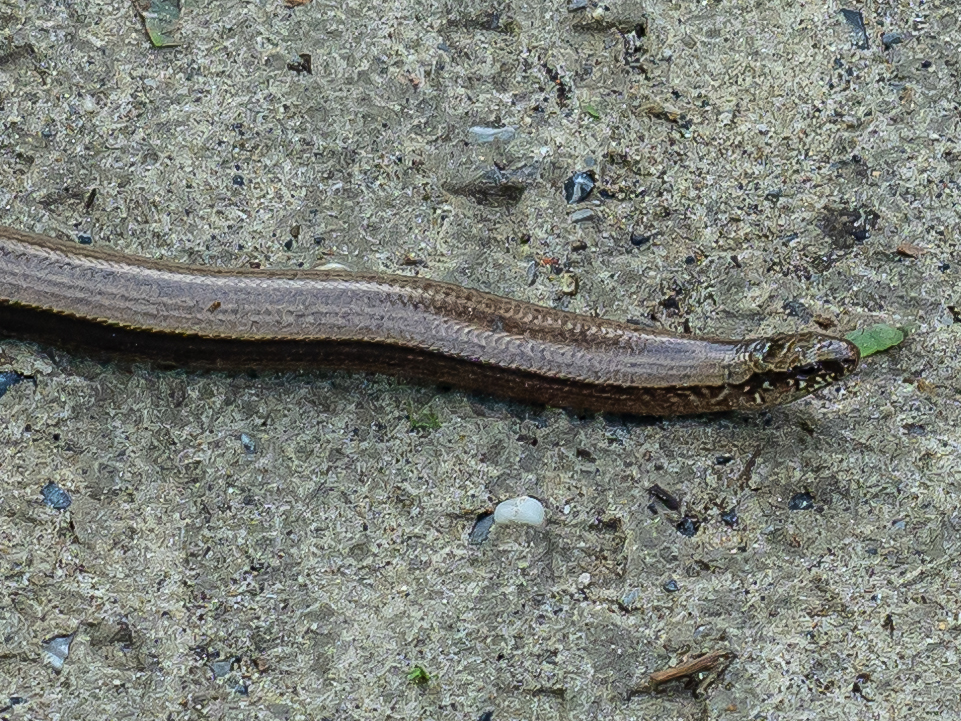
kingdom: Animalia
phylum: Chordata
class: Squamata
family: Anguidae
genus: Anguis
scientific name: Anguis fragilis
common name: Slow worm
